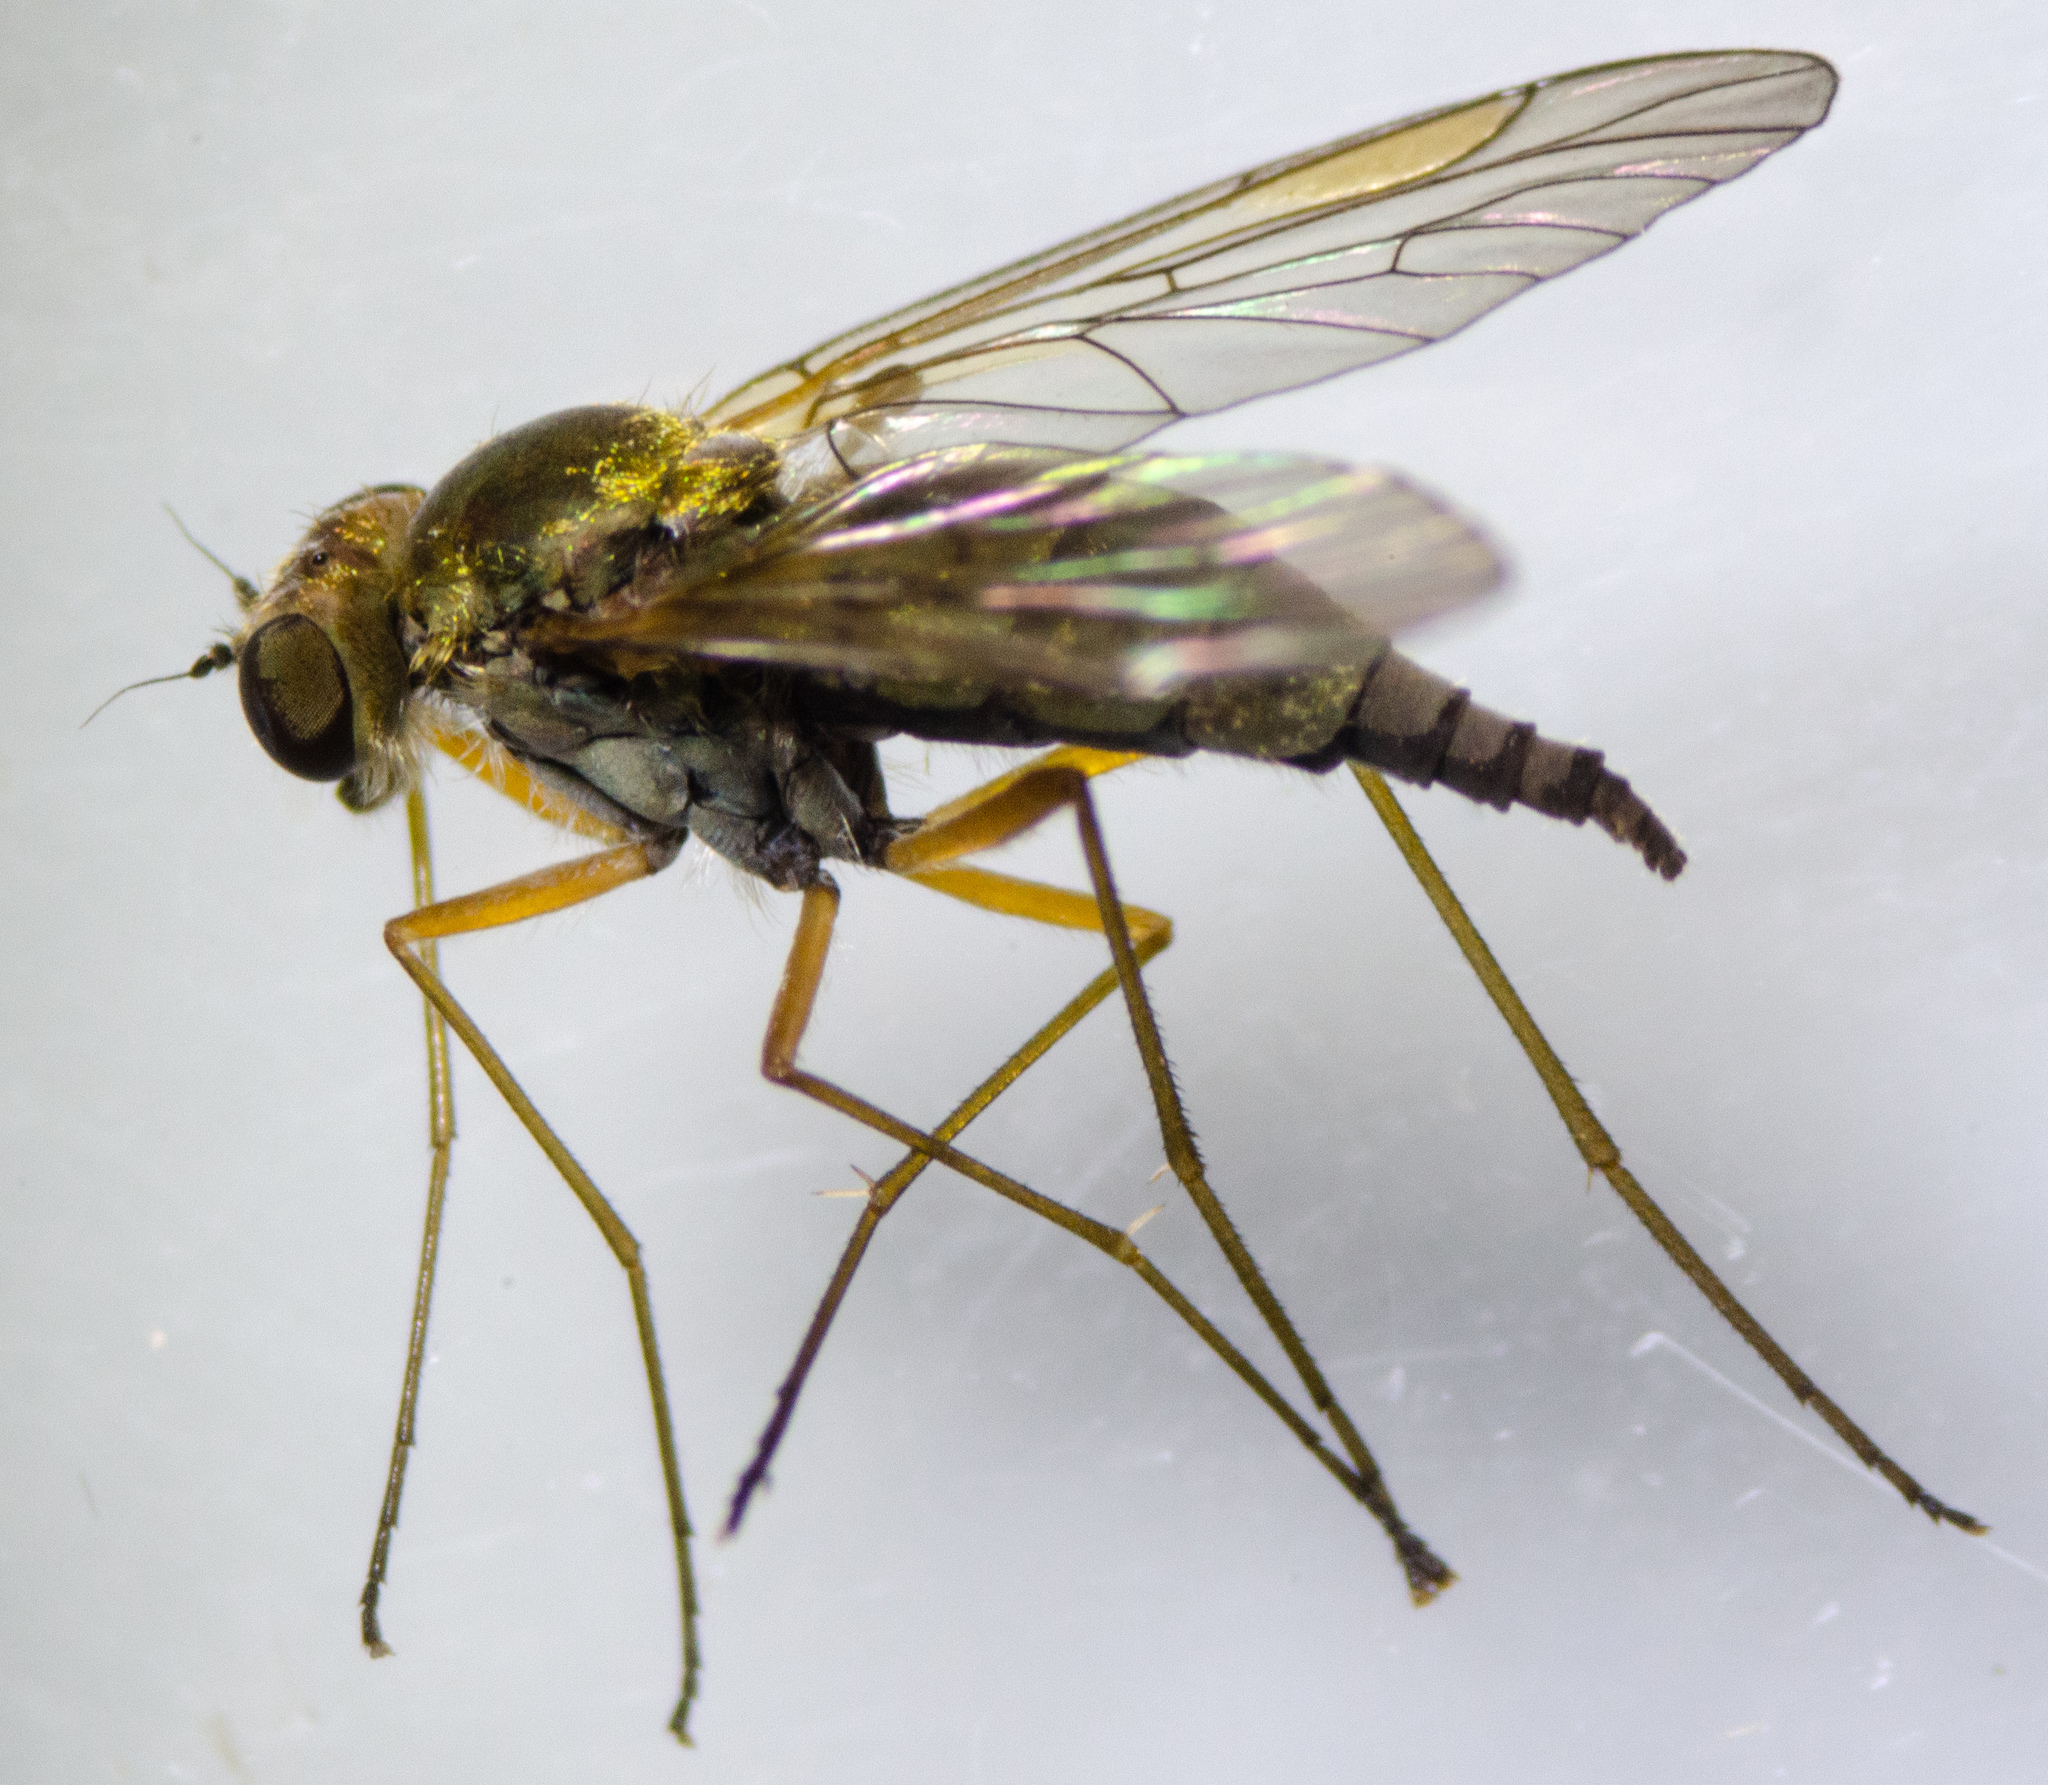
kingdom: Animalia
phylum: Arthropoda
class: Insecta
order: Diptera
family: Rhagionidae
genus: Chrysopilus
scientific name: Chrysopilus tomentosus
